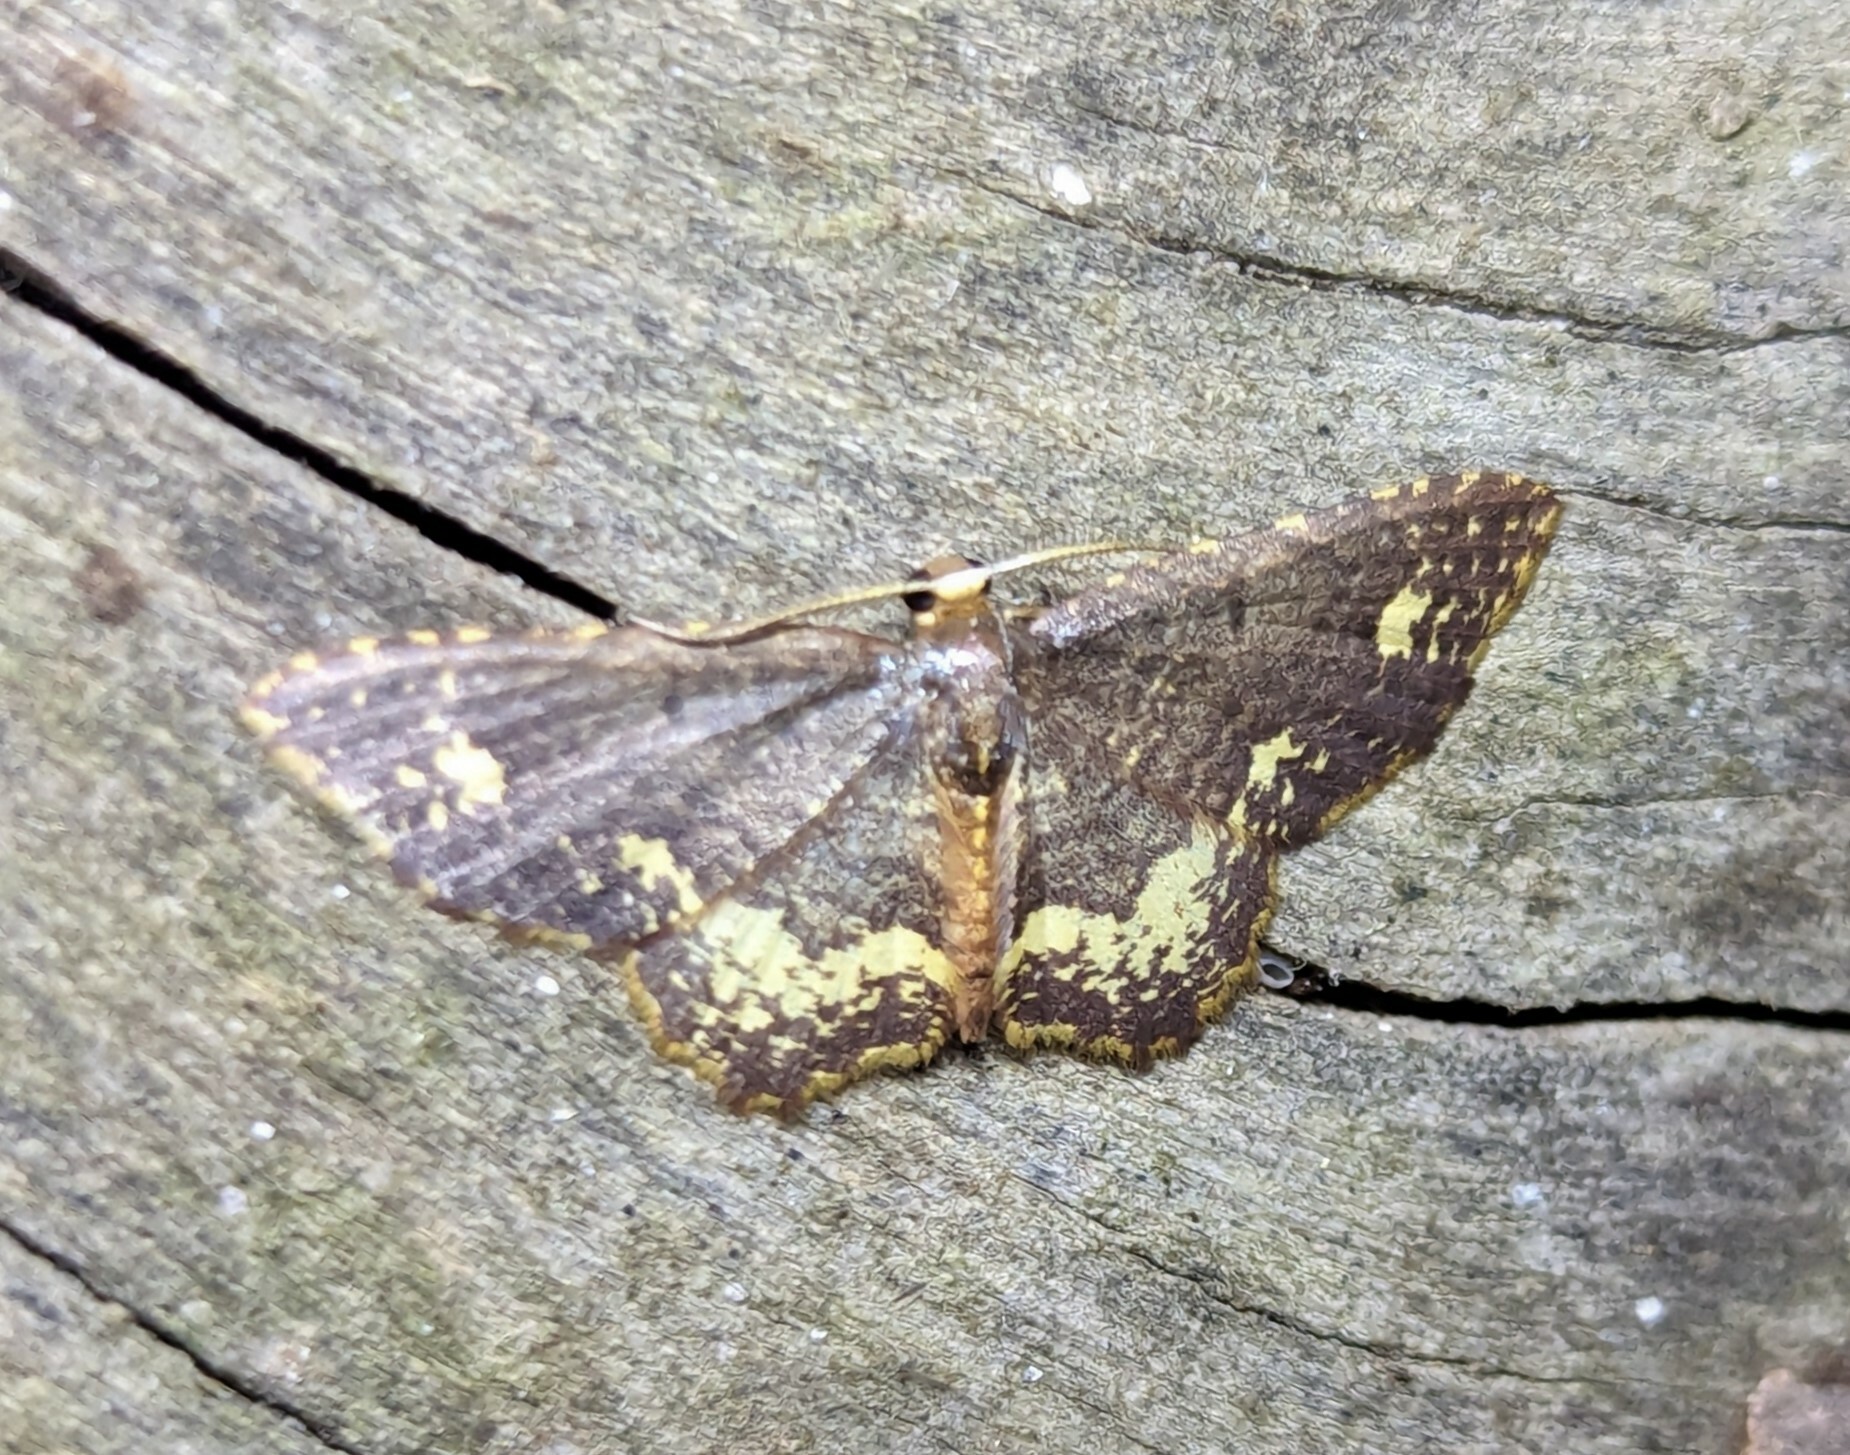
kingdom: Animalia
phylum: Arthropoda
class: Insecta
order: Lepidoptera
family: Geometridae
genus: Eois
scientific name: Eois biradiata
